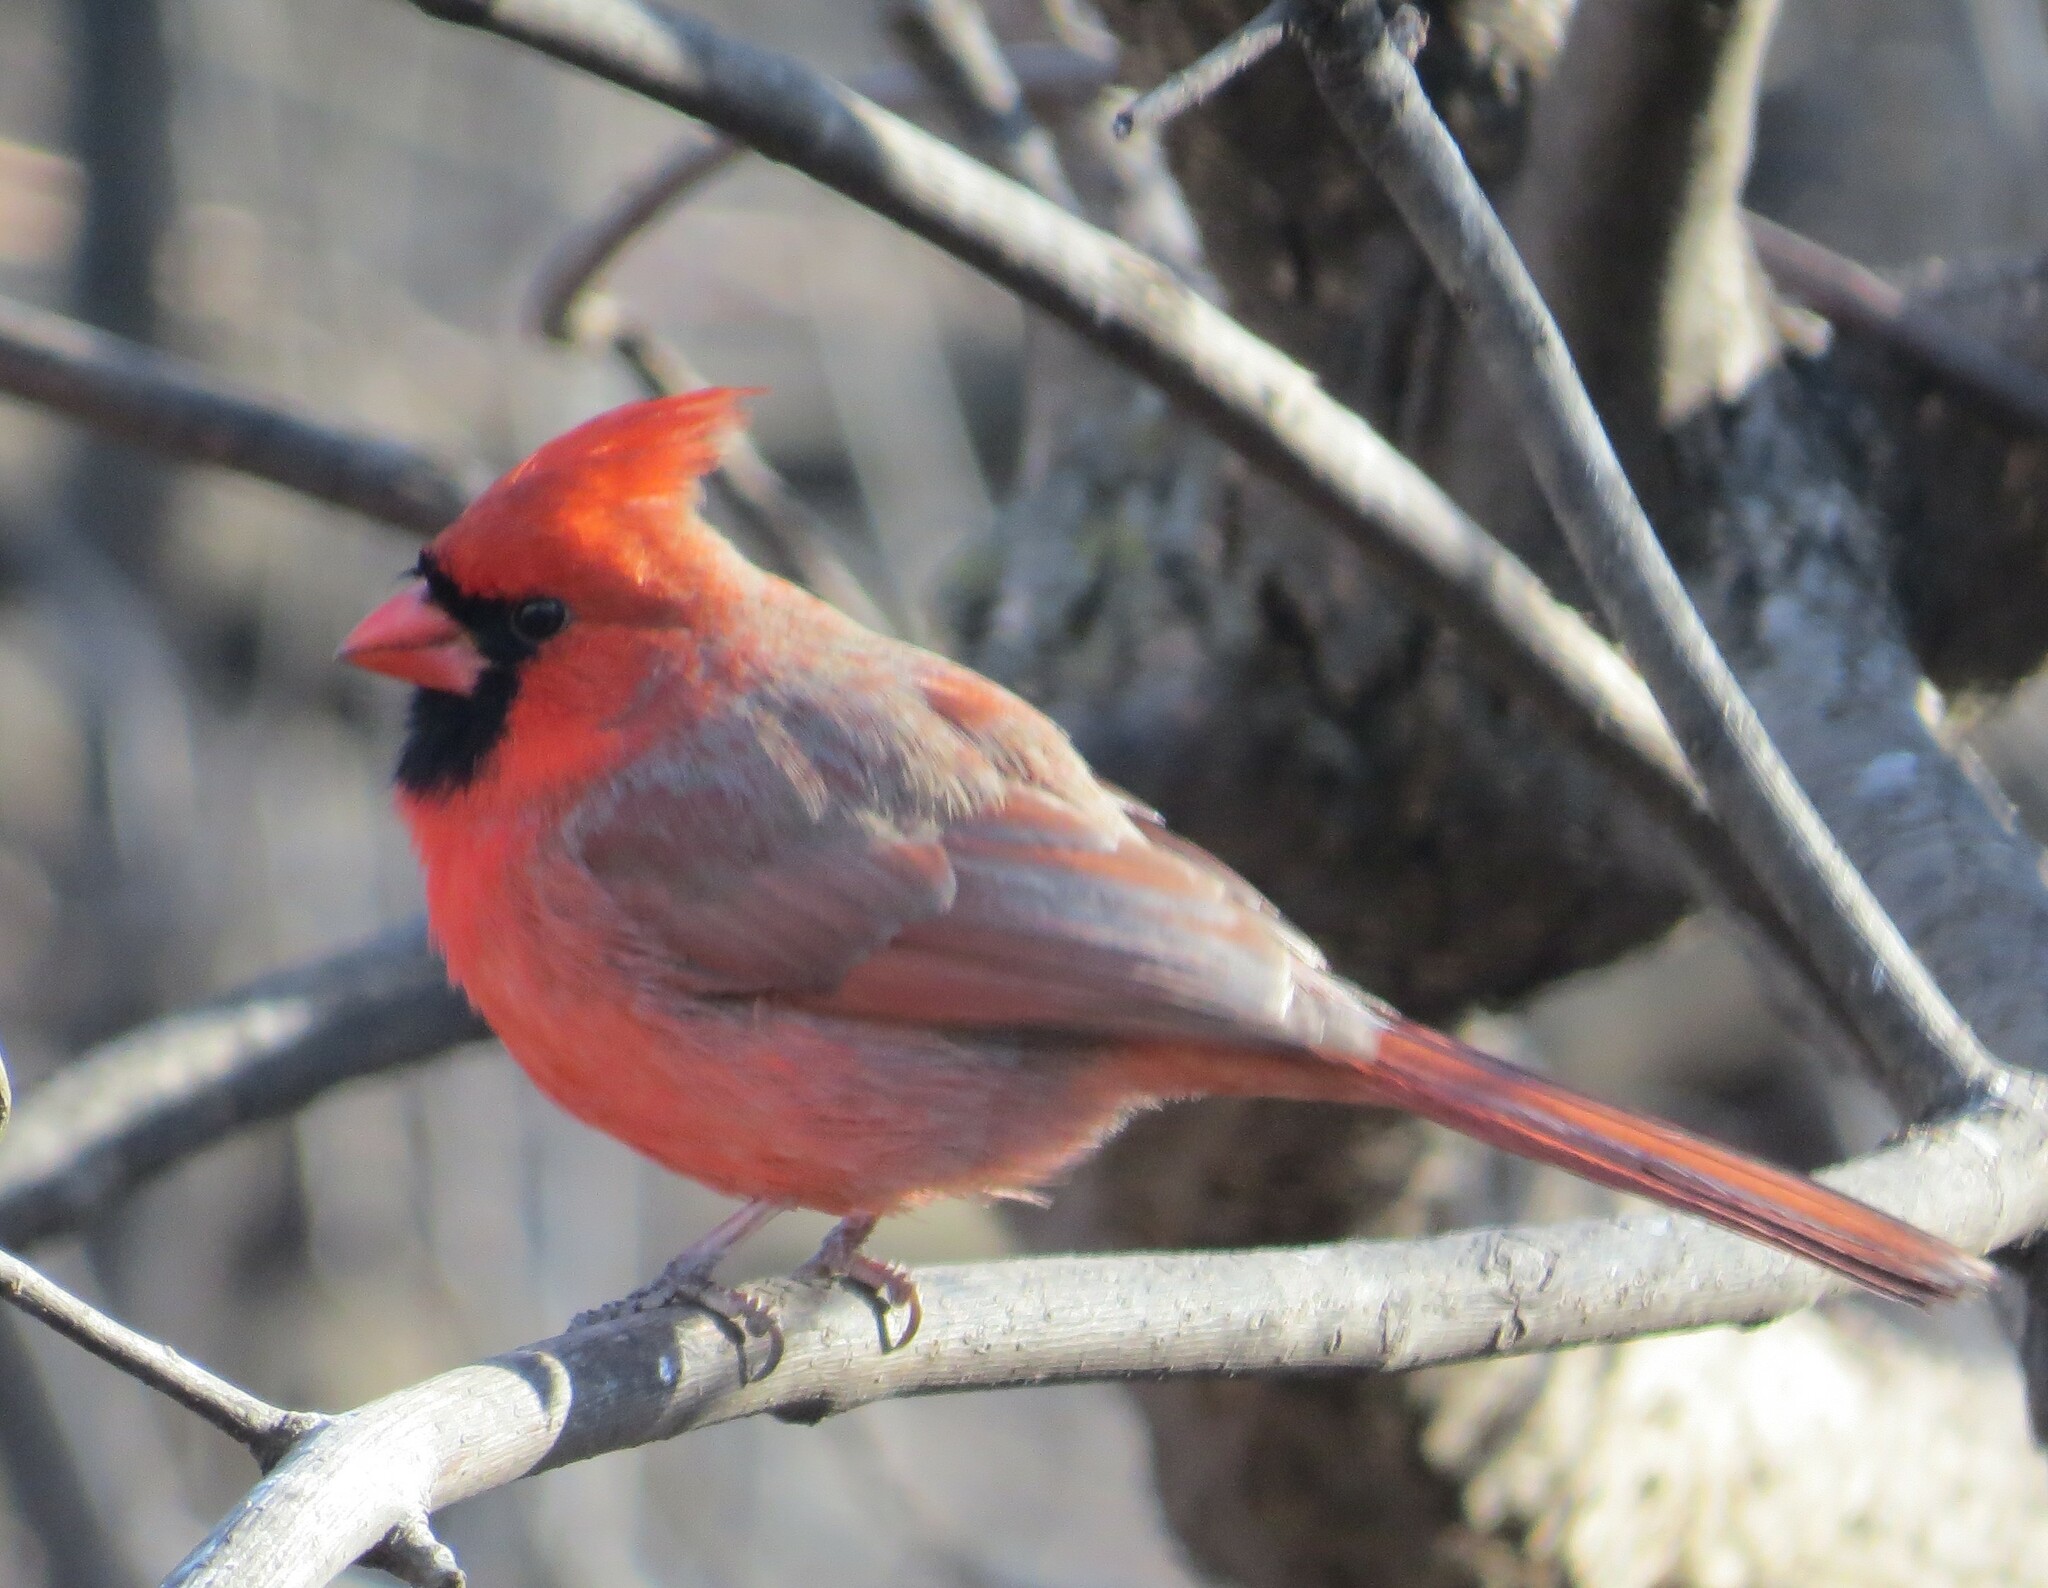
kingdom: Animalia
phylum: Chordata
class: Aves
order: Passeriformes
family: Cardinalidae
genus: Cardinalis
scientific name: Cardinalis cardinalis
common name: Northern cardinal
